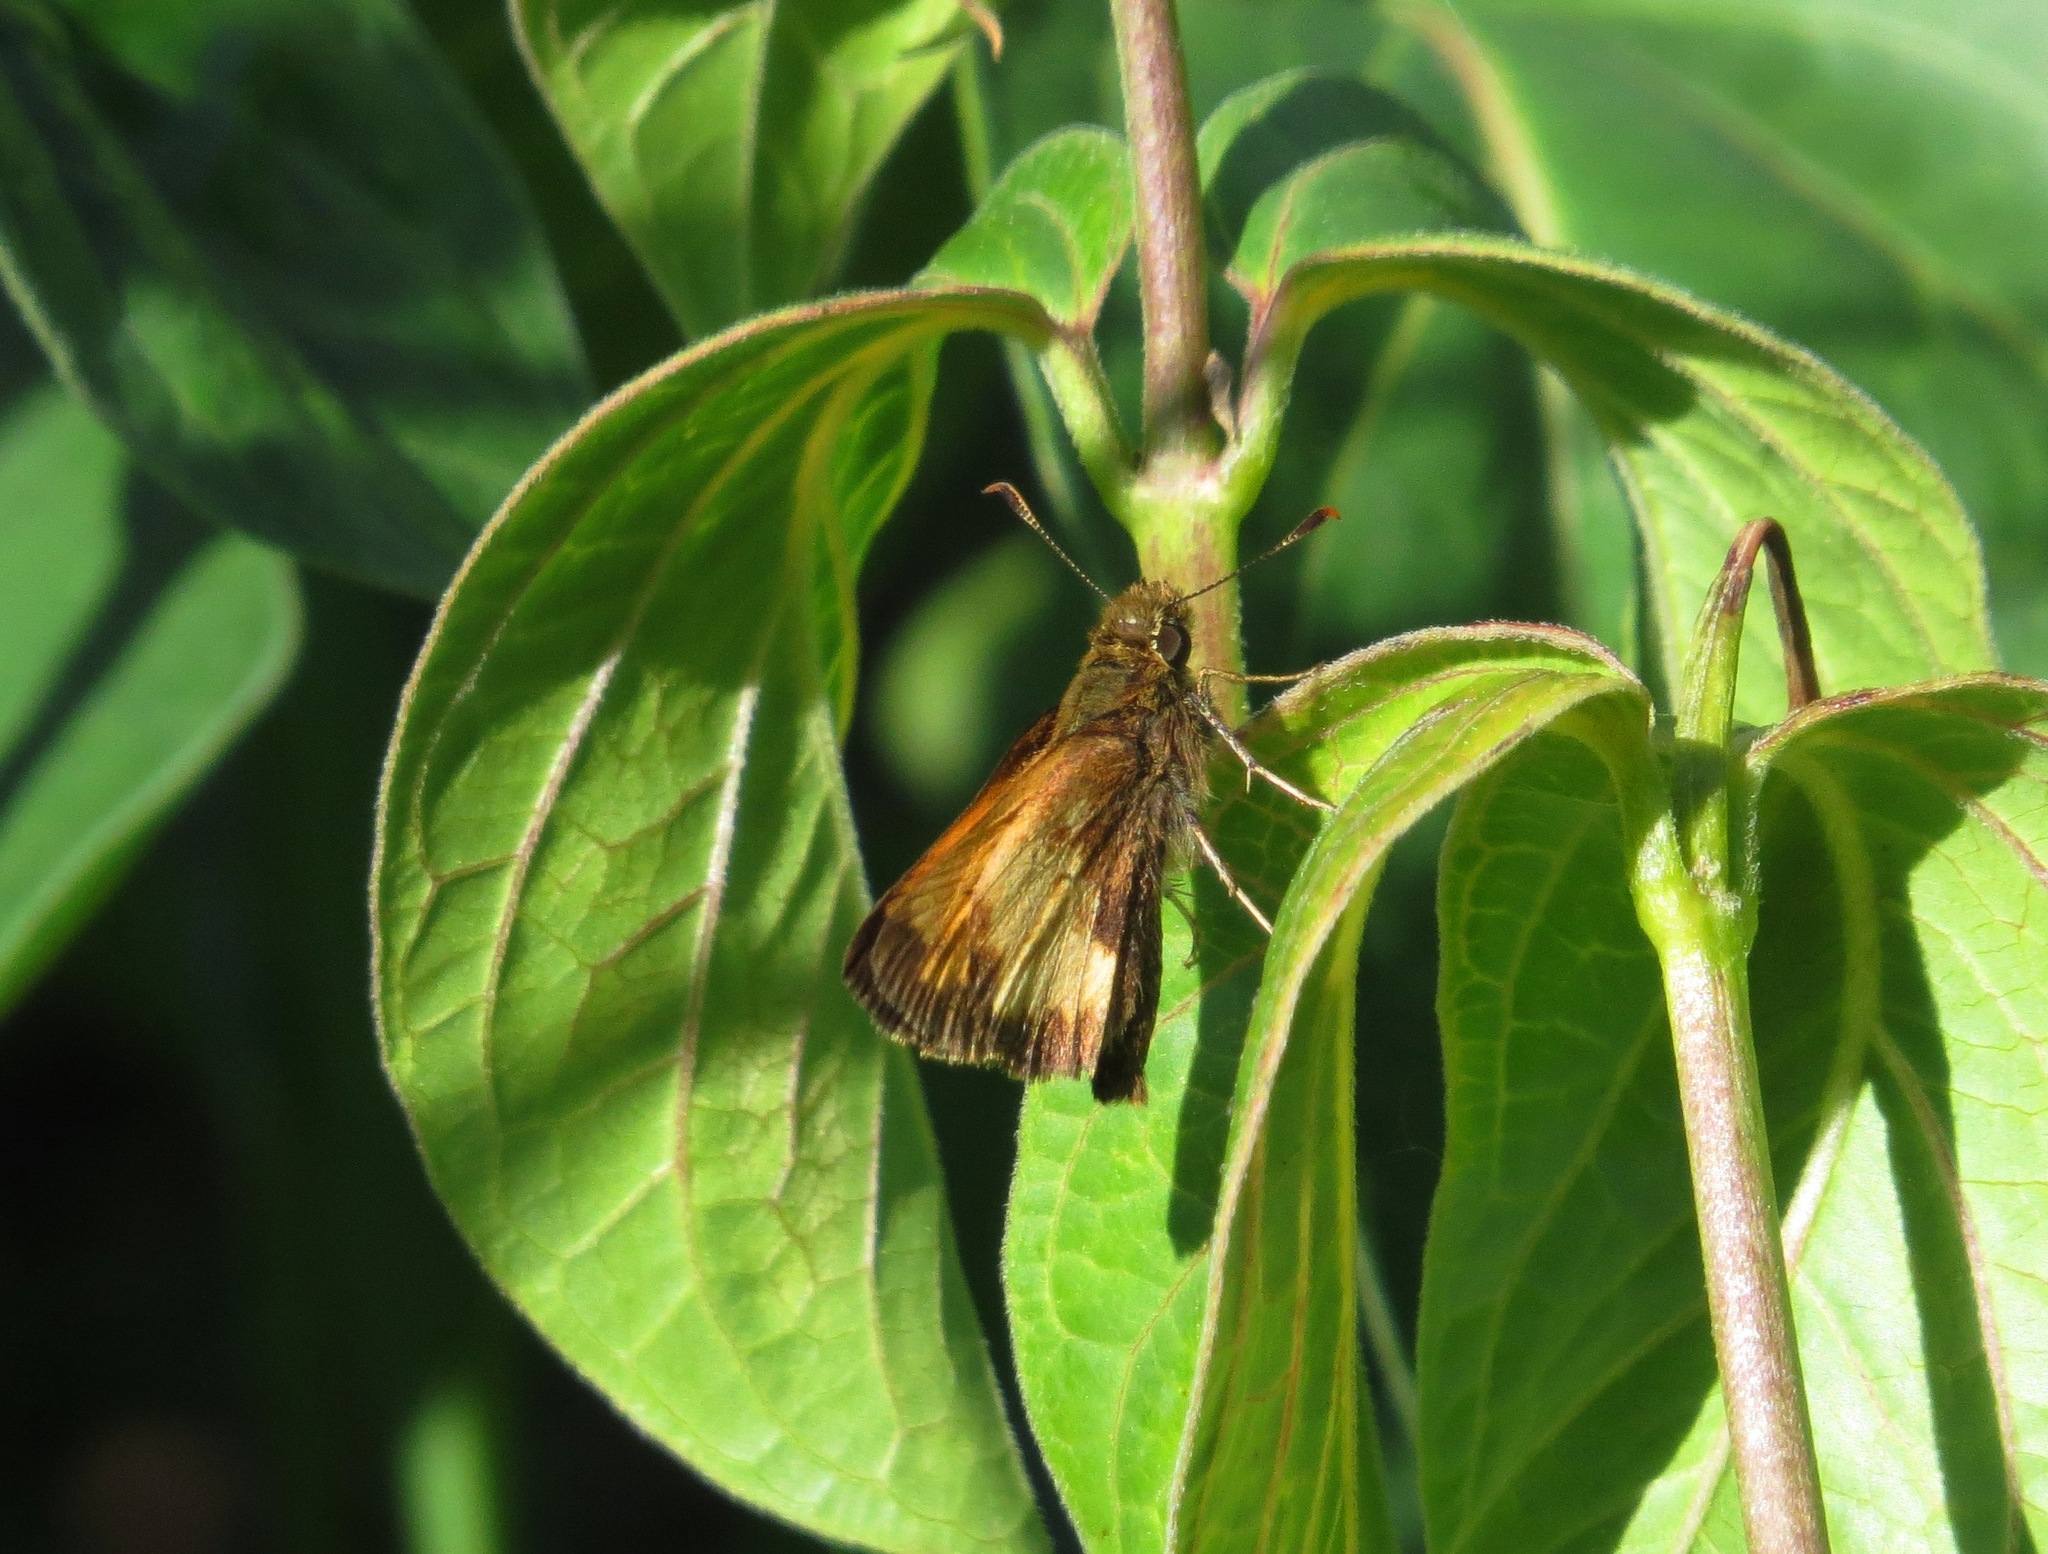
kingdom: Animalia
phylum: Arthropoda
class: Insecta
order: Lepidoptera
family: Hesperiidae
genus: Lon
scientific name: Lon hobomok
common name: Hobomok skipper
